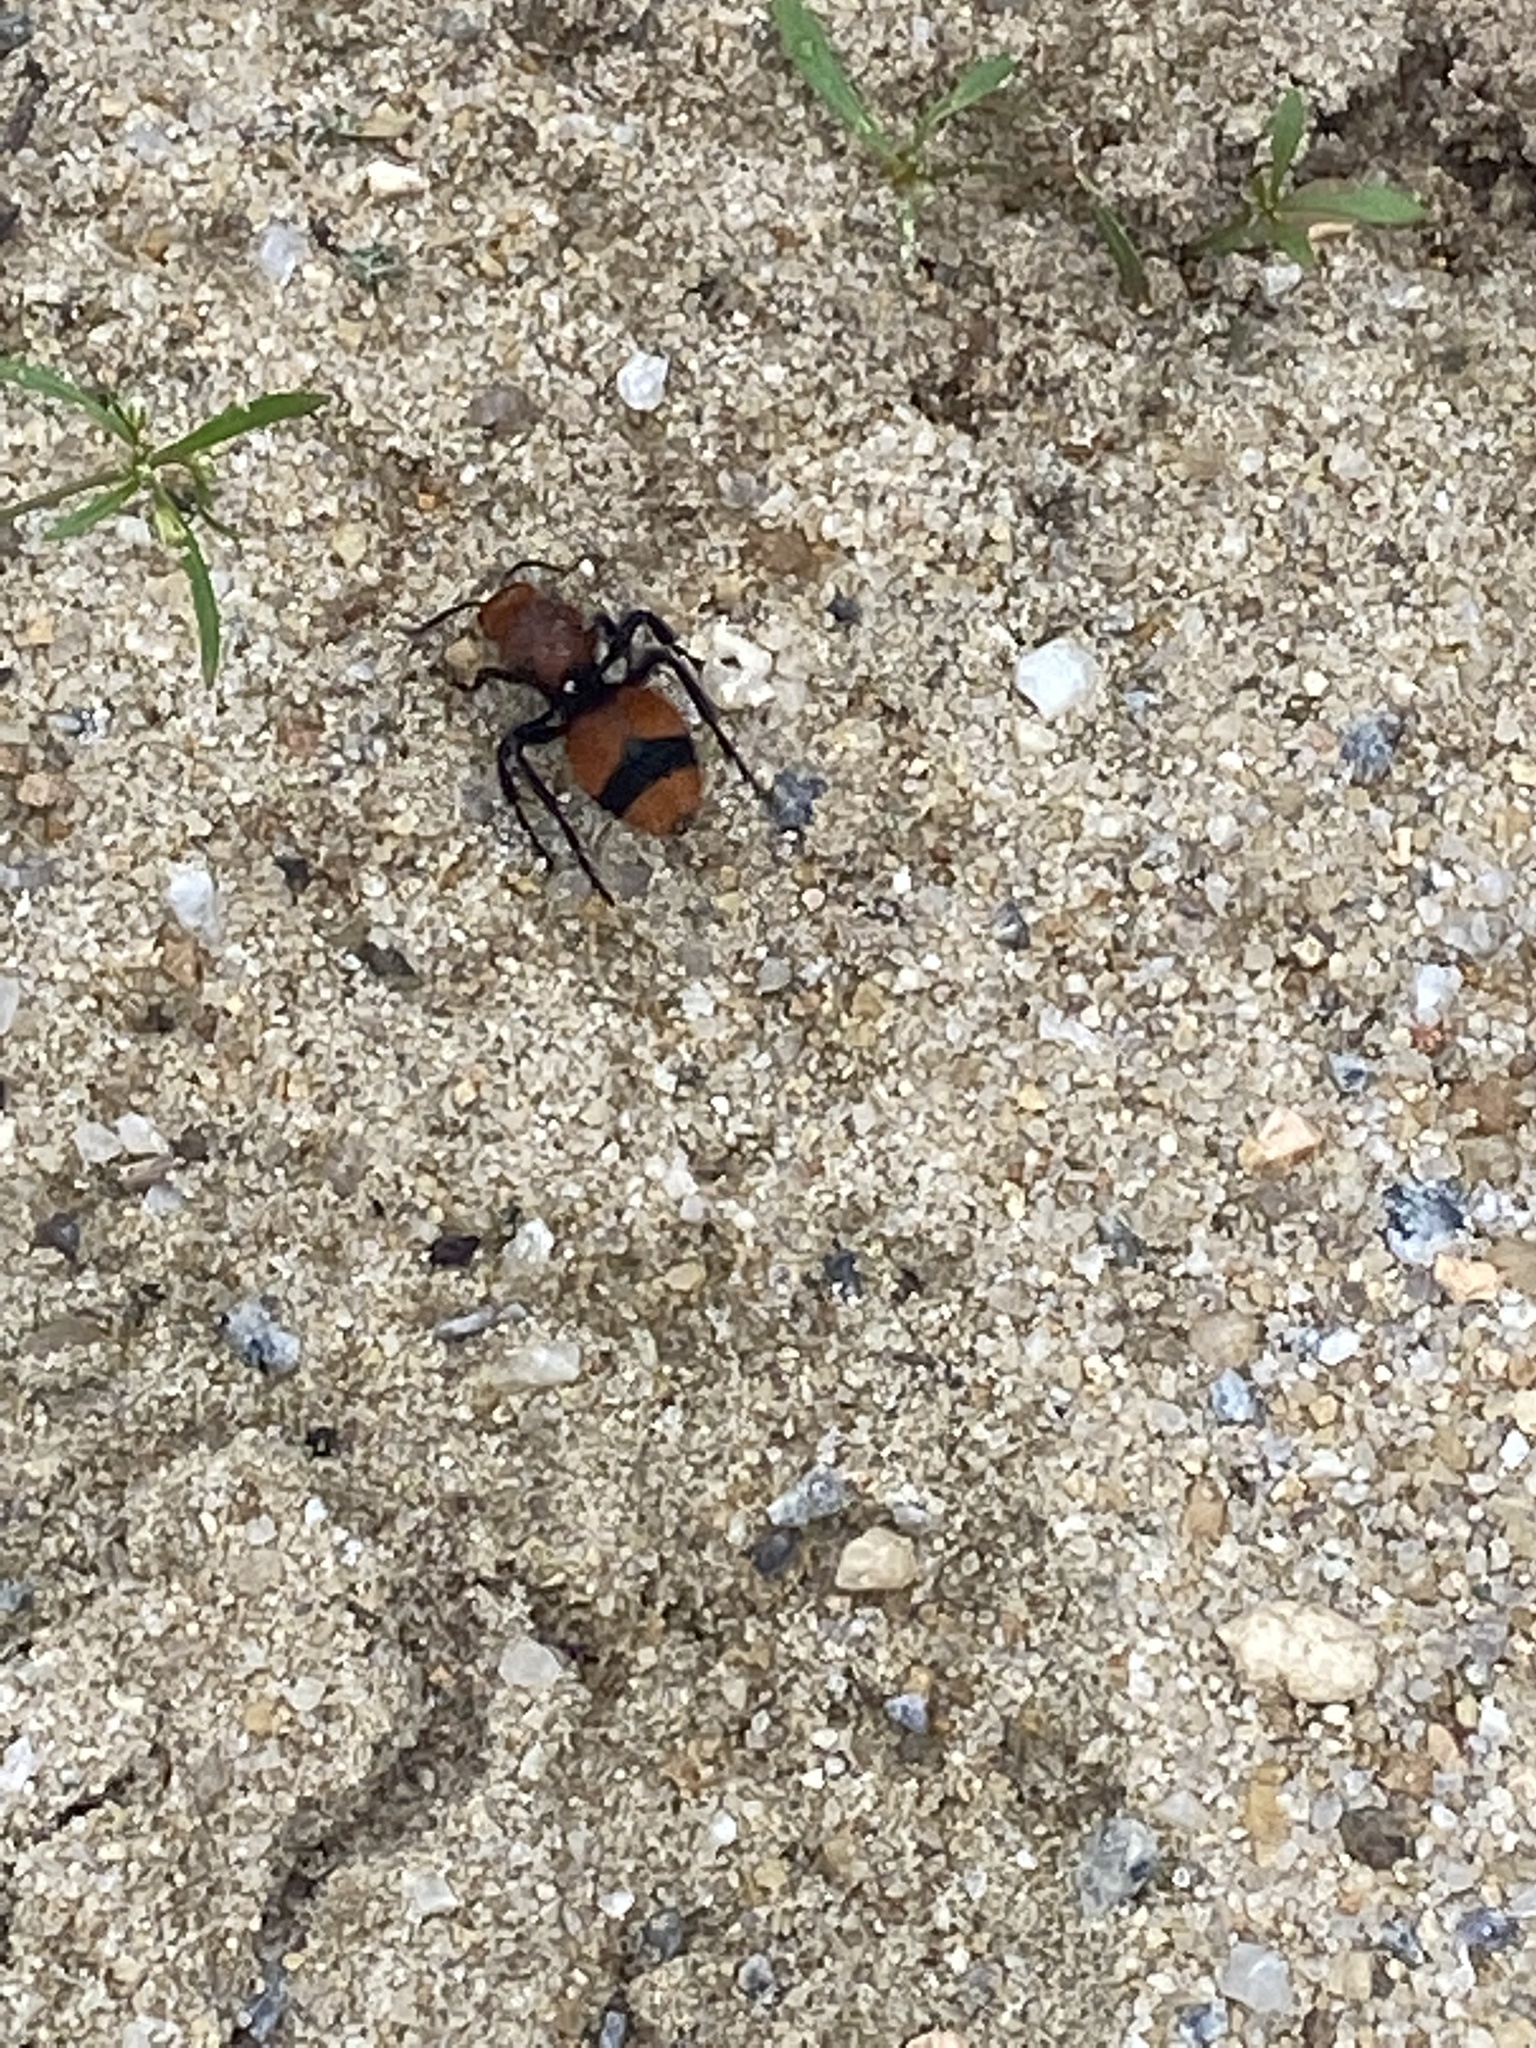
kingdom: Animalia
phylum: Arthropoda
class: Insecta
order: Hymenoptera
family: Mutillidae
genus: Dasymutilla
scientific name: Dasymutilla occidentalis
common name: Common eastern velvet ant
